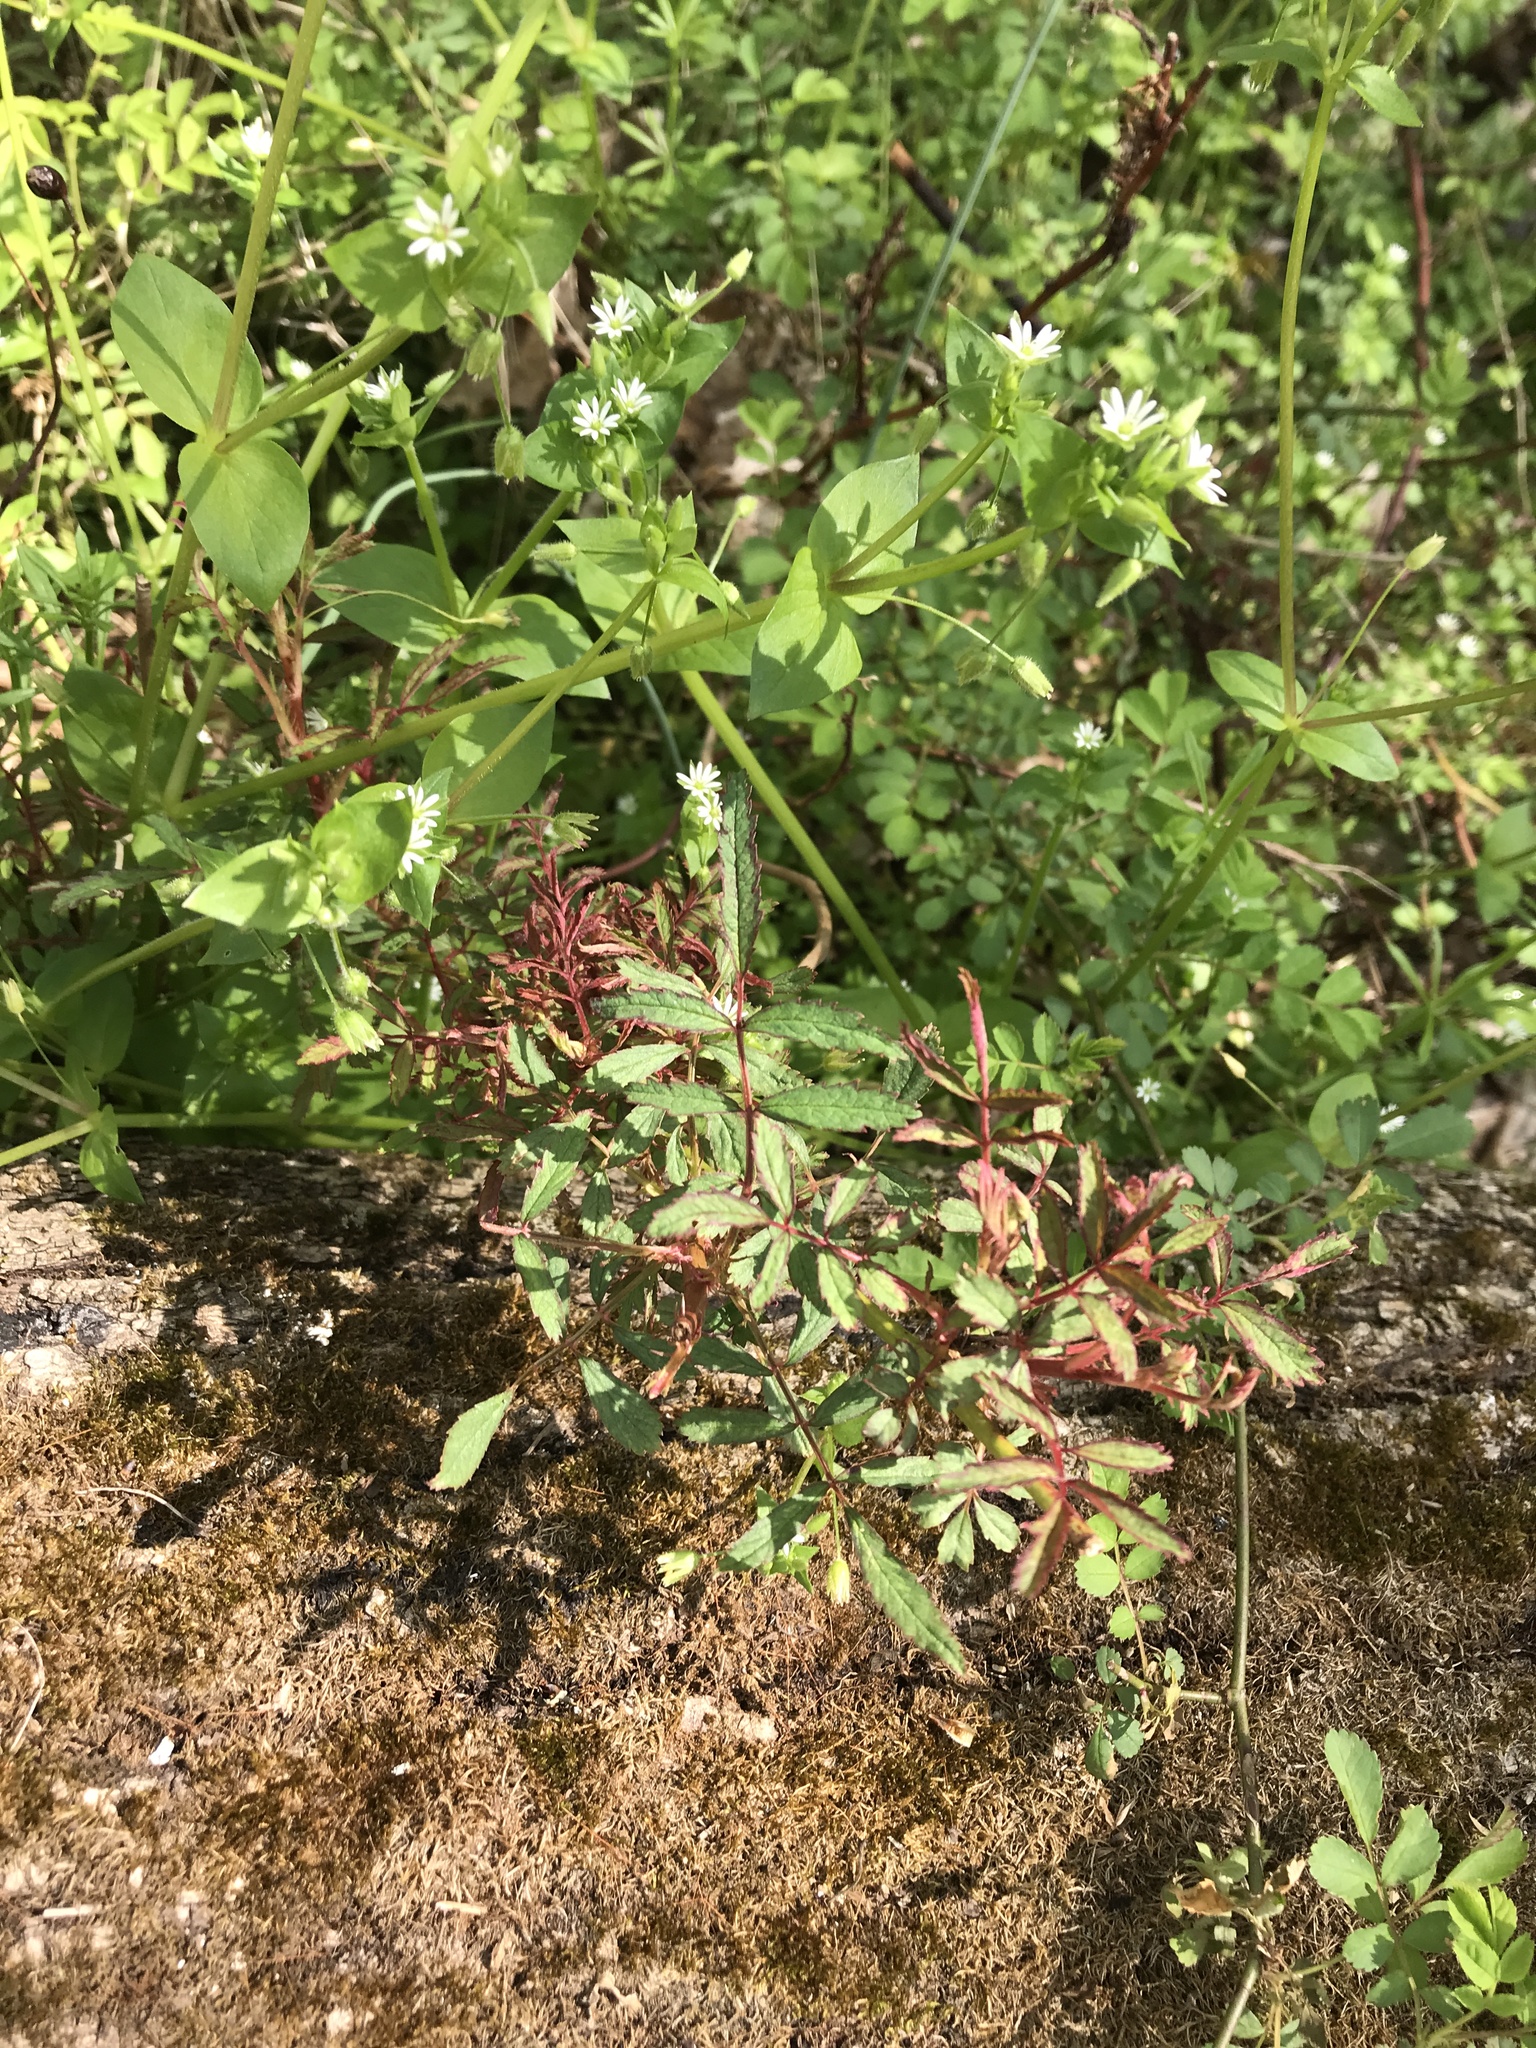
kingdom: Viruses
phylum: Negarnaviricota
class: Ellioviricetes
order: Bunyavirales
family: Fimoviridae
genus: Emaravirus
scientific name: Emaravirus rosae
